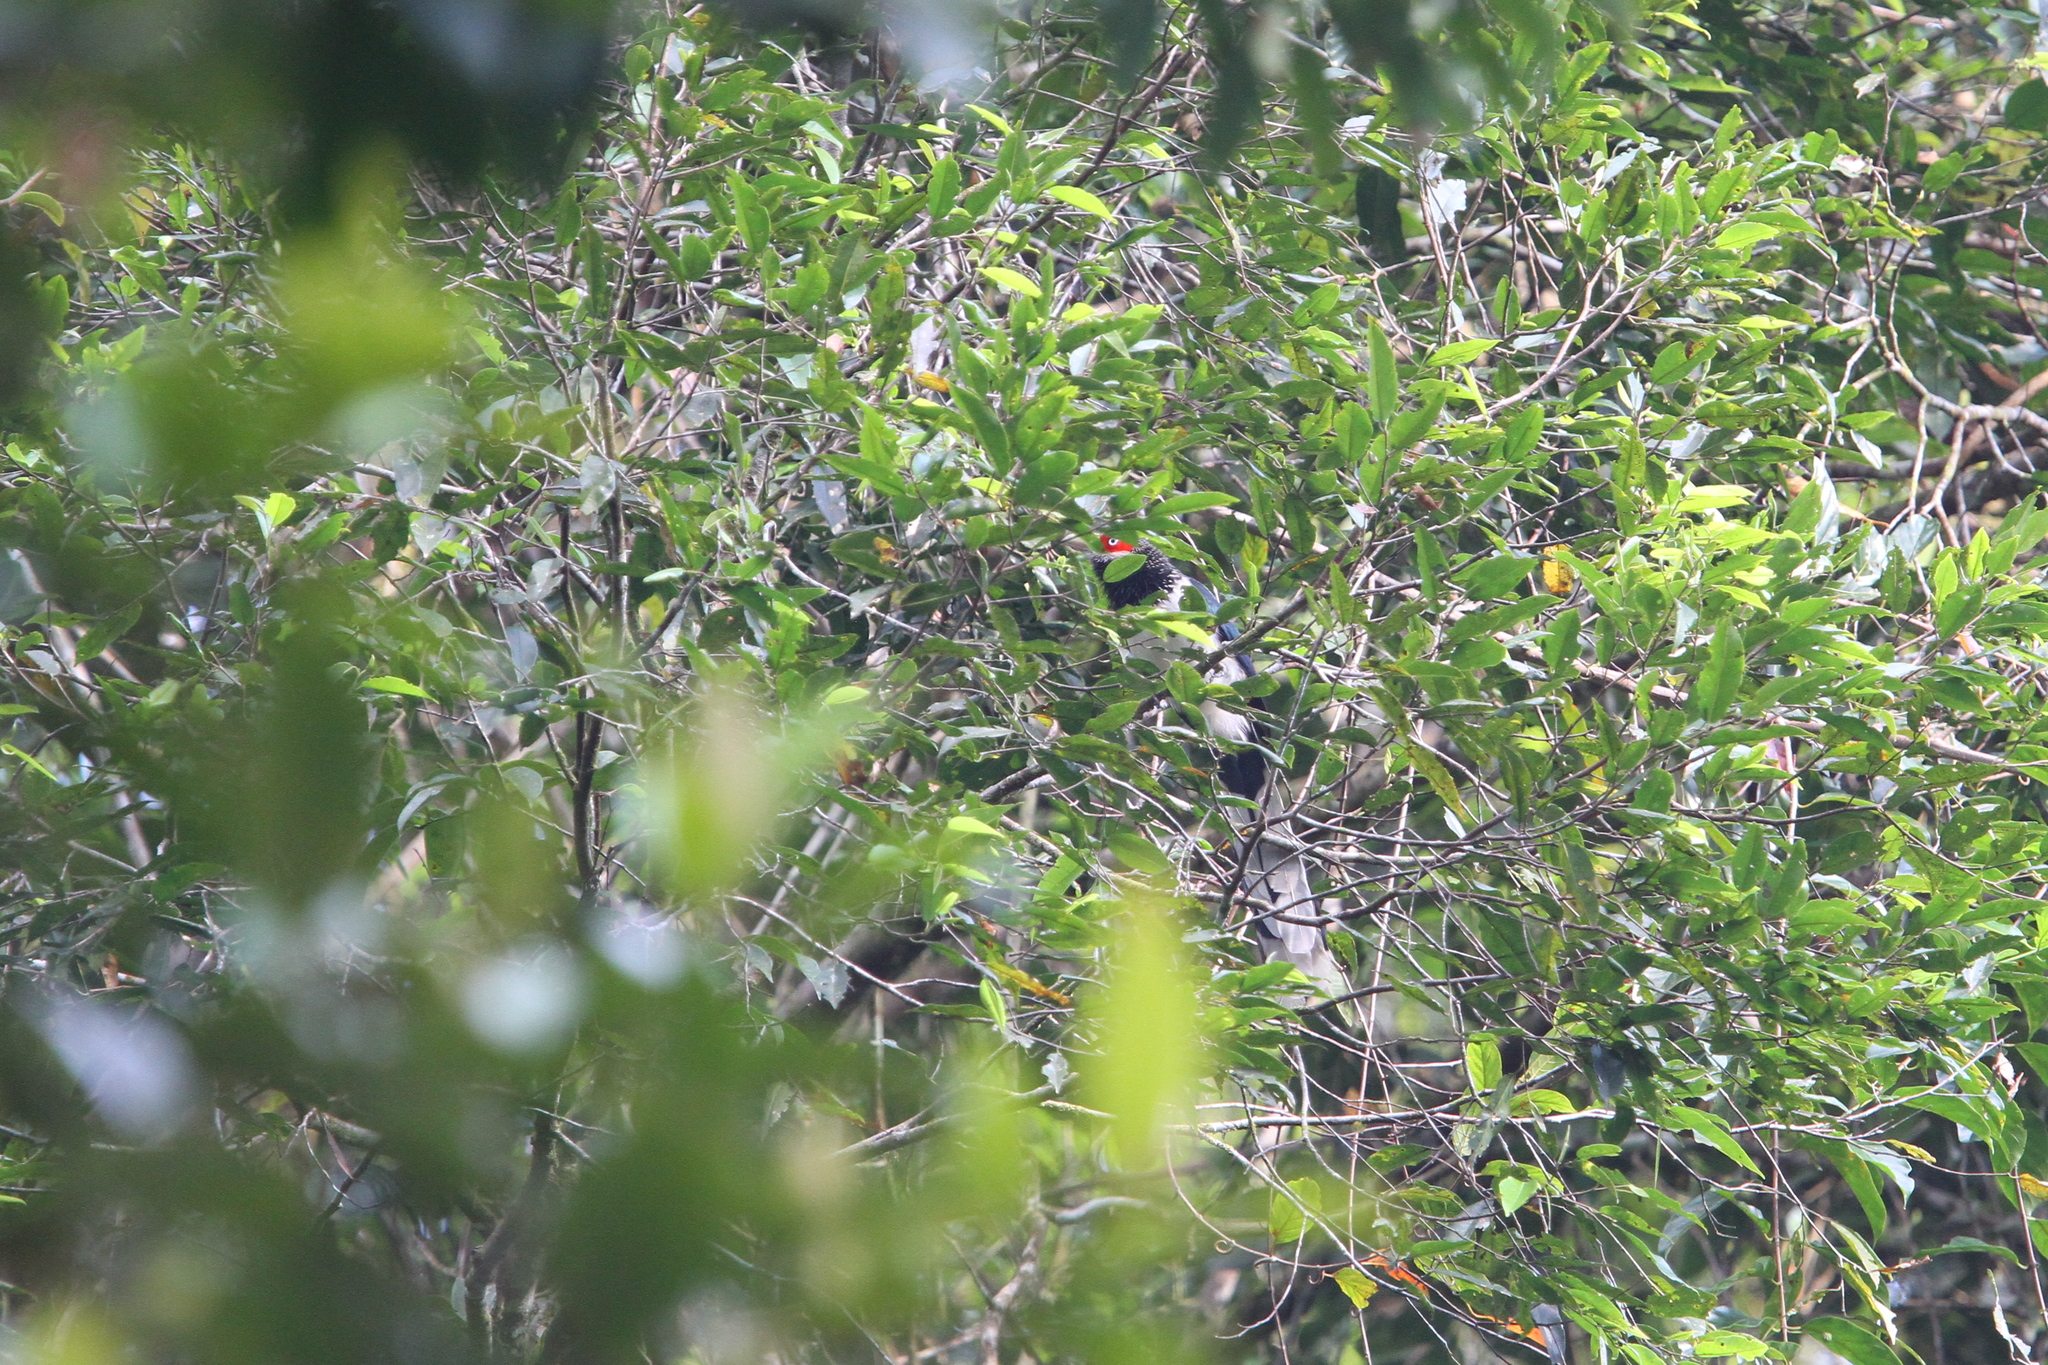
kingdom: Animalia
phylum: Chordata
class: Aves
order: Cuculiformes
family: Cuculidae
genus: Phaenicophaeus
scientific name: Phaenicophaeus pyrrhocephalus
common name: Red-faced malkoha
